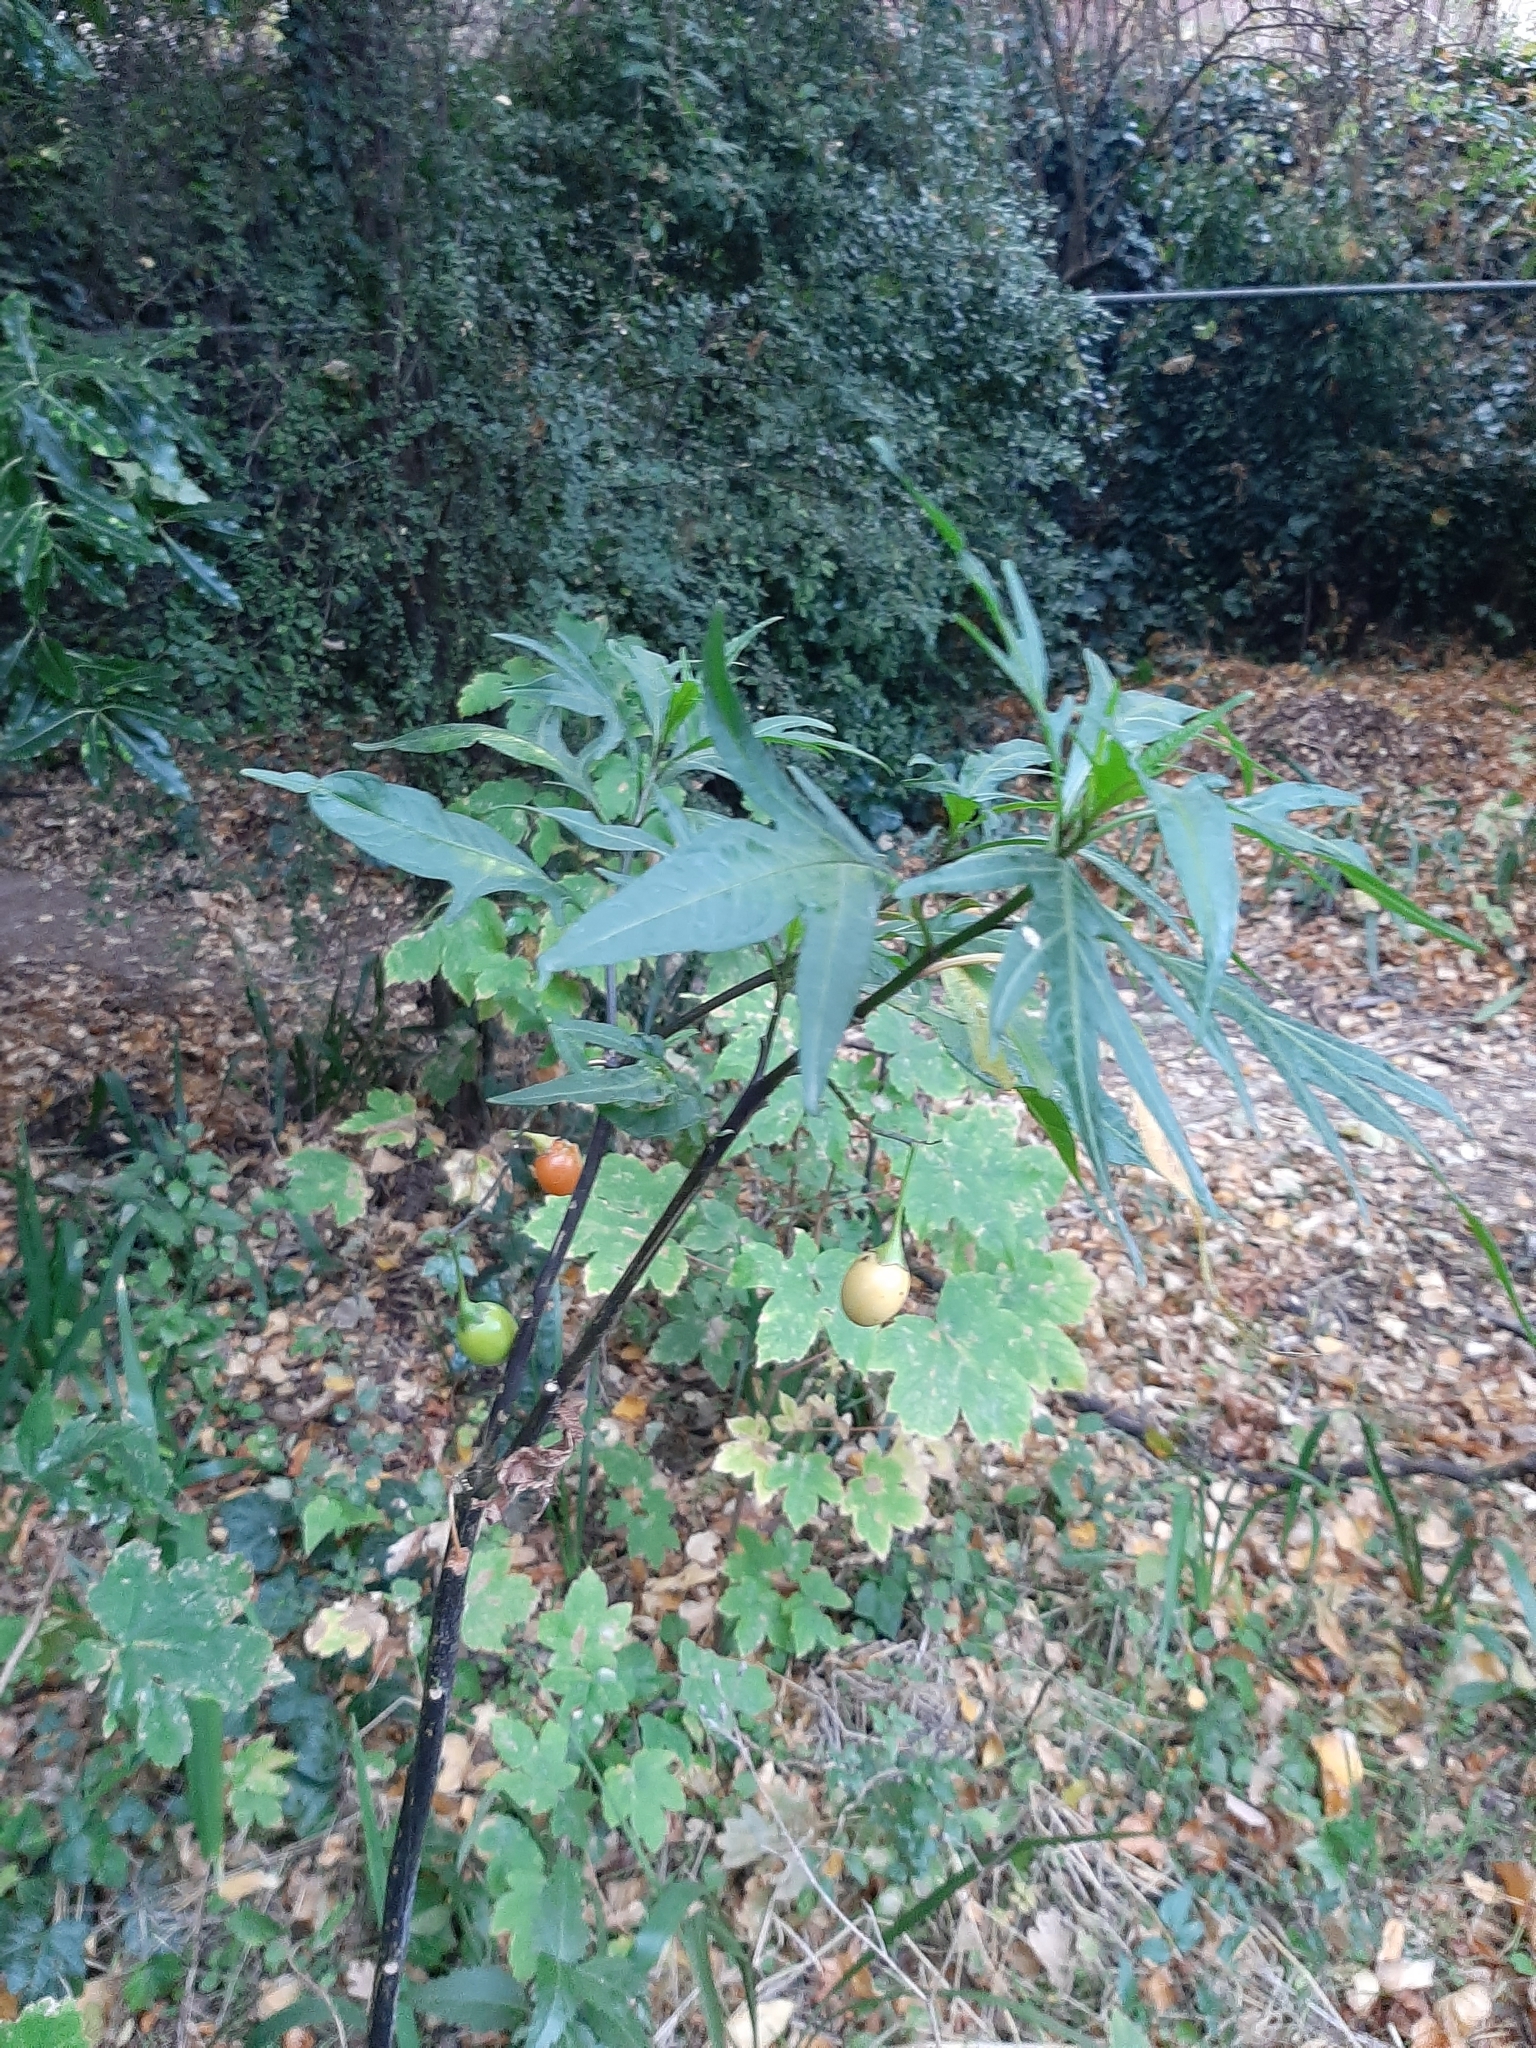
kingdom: Plantae
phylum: Tracheophyta
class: Magnoliopsida
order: Solanales
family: Solanaceae
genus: Solanum
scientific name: Solanum laciniatum
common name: Kangaroo-apple
